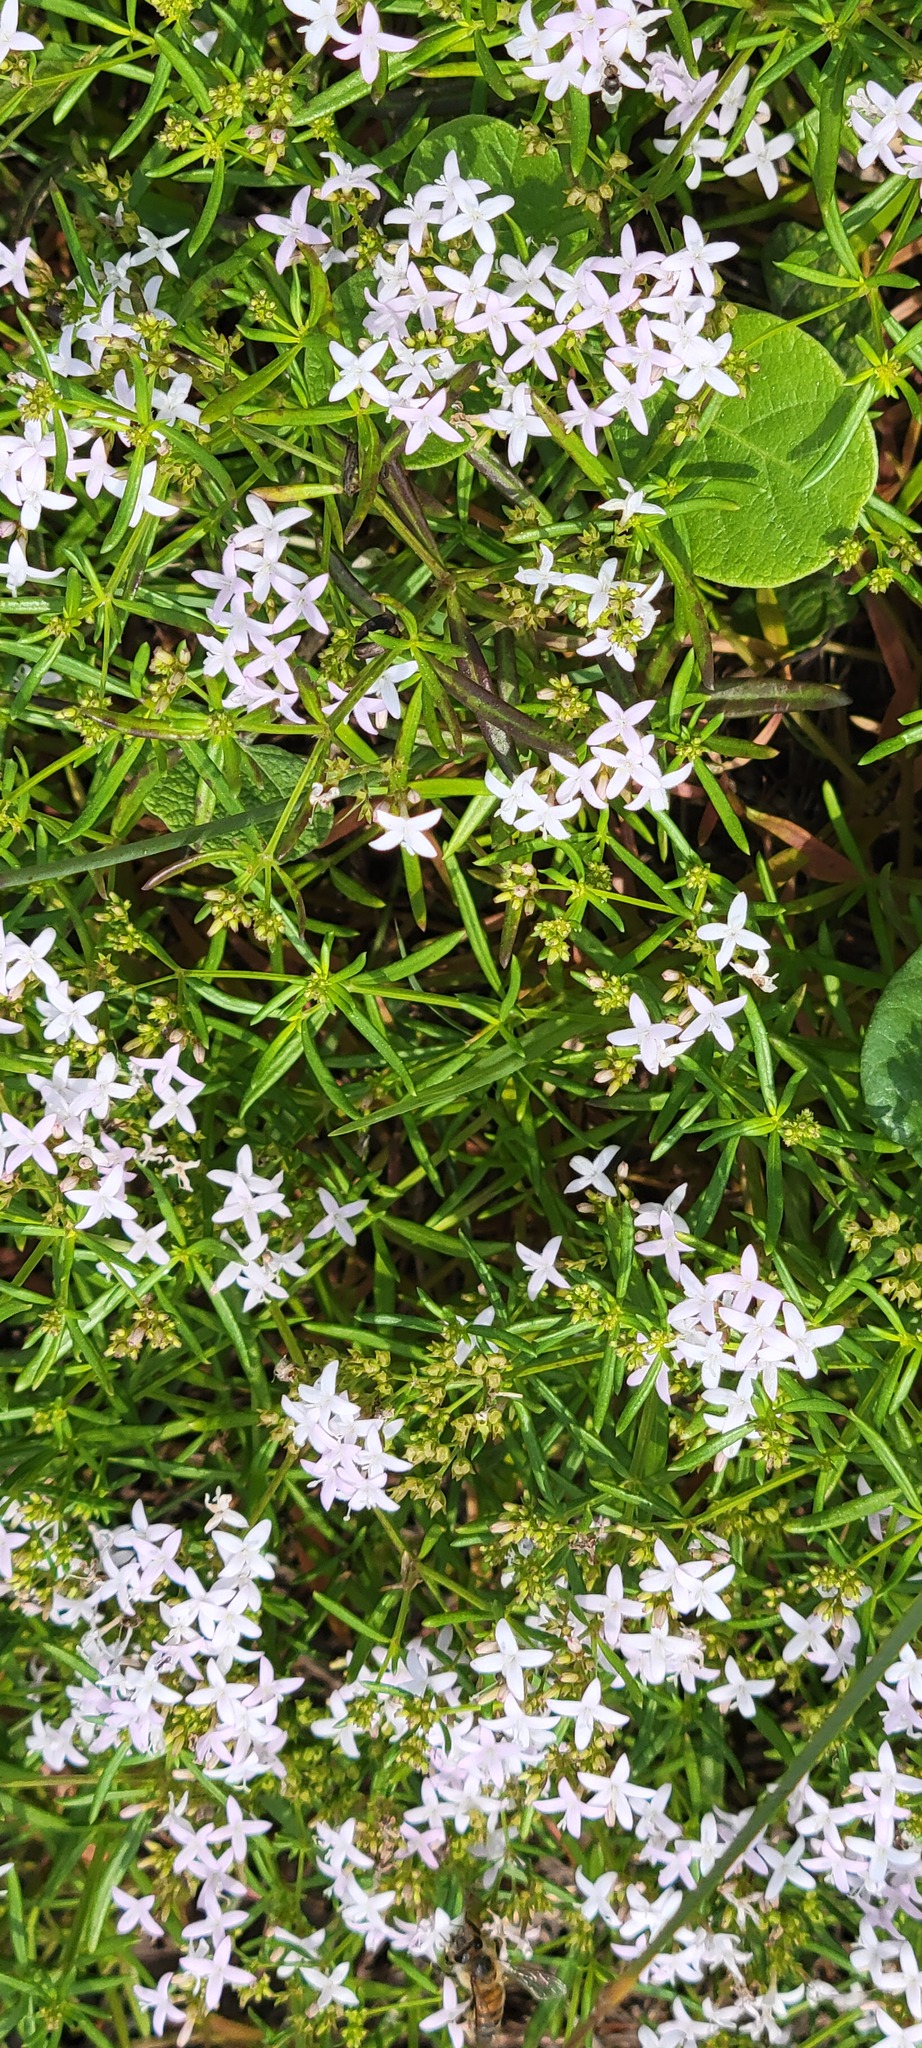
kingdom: Plantae
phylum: Tracheophyta
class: Magnoliopsida
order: Gentianales
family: Rubiaceae
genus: Stenaria
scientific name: Stenaria nigricans
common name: Diamondflowers
